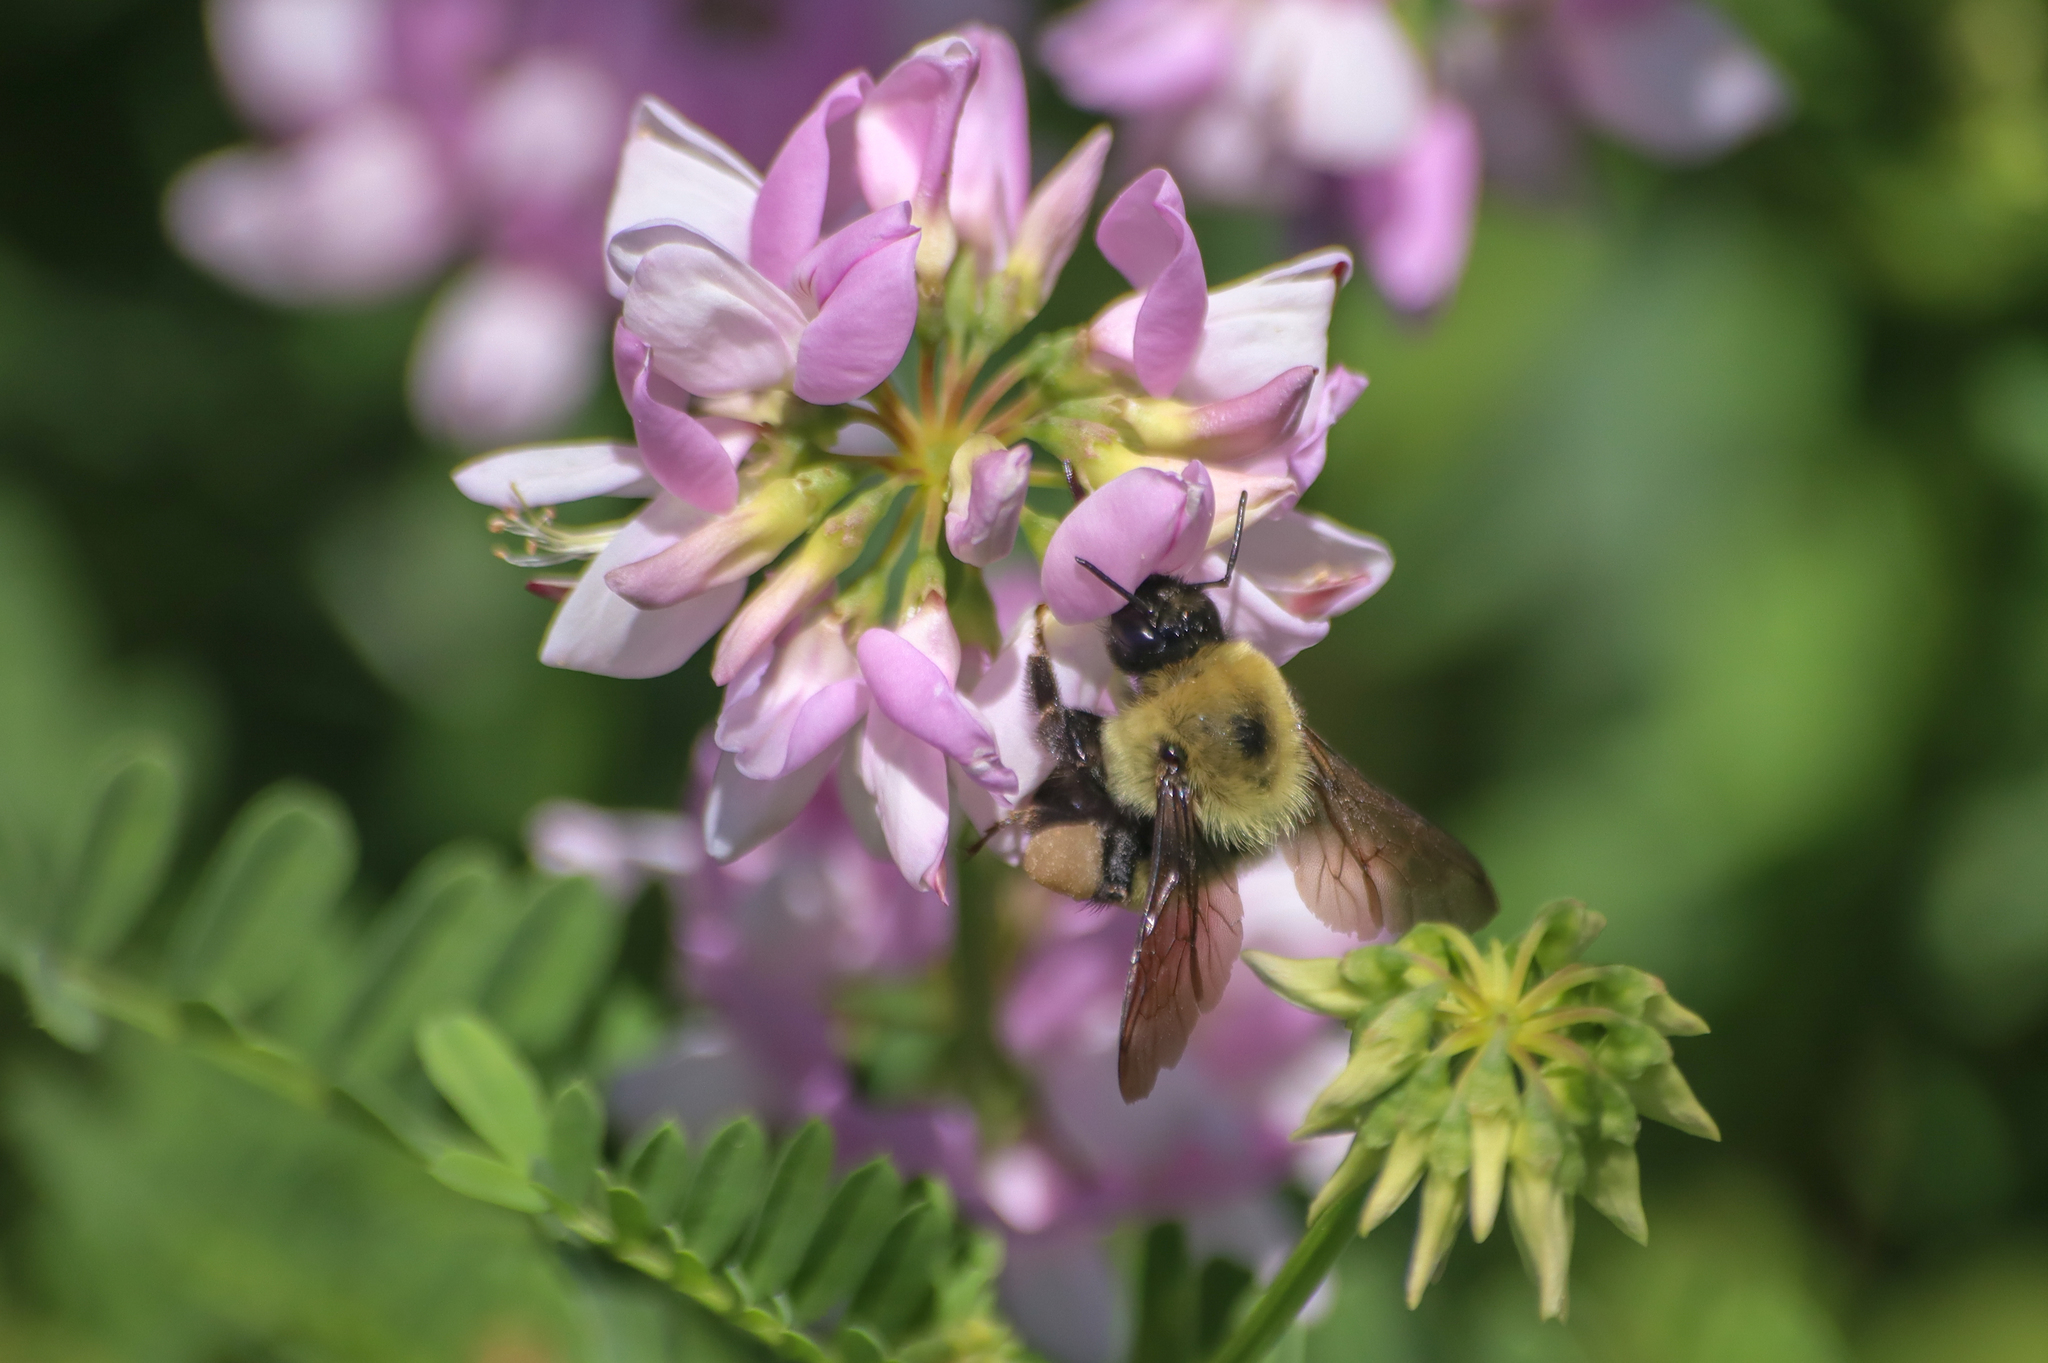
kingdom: Animalia
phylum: Arthropoda
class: Insecta
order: Hymenoptera
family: Apidae
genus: Bombus
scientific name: Bombus griseocollis
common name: Brown-belted bumble bee
